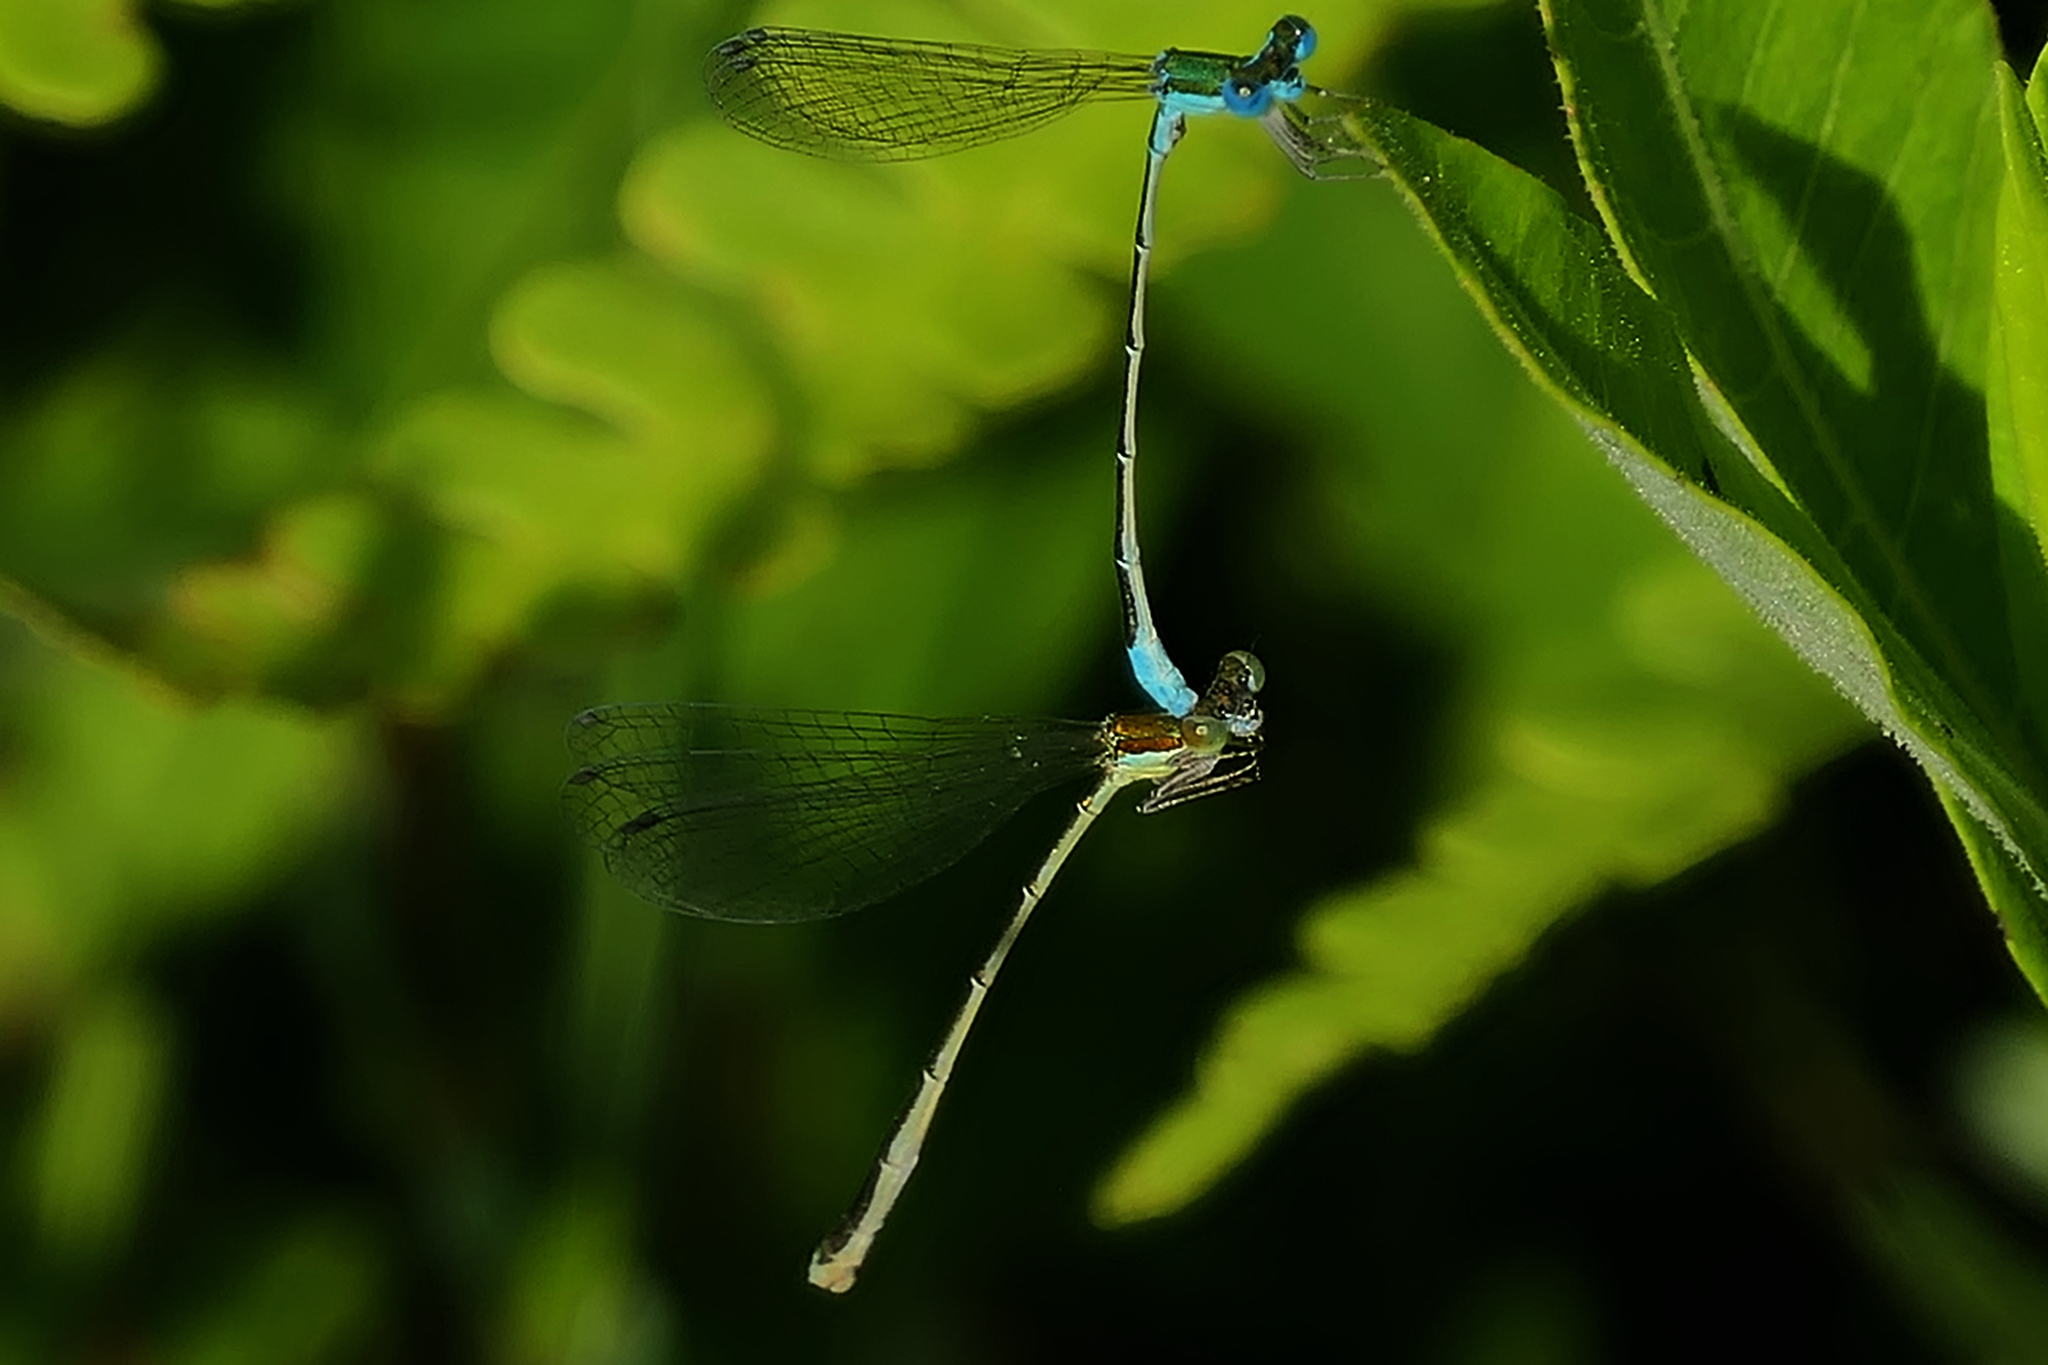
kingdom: Animalia
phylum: Arthropoda
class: Insecta
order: Odonata
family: Coenagrionidae
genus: Nehalennia
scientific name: Nehalennia gracilis
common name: Sphagnum sprite
